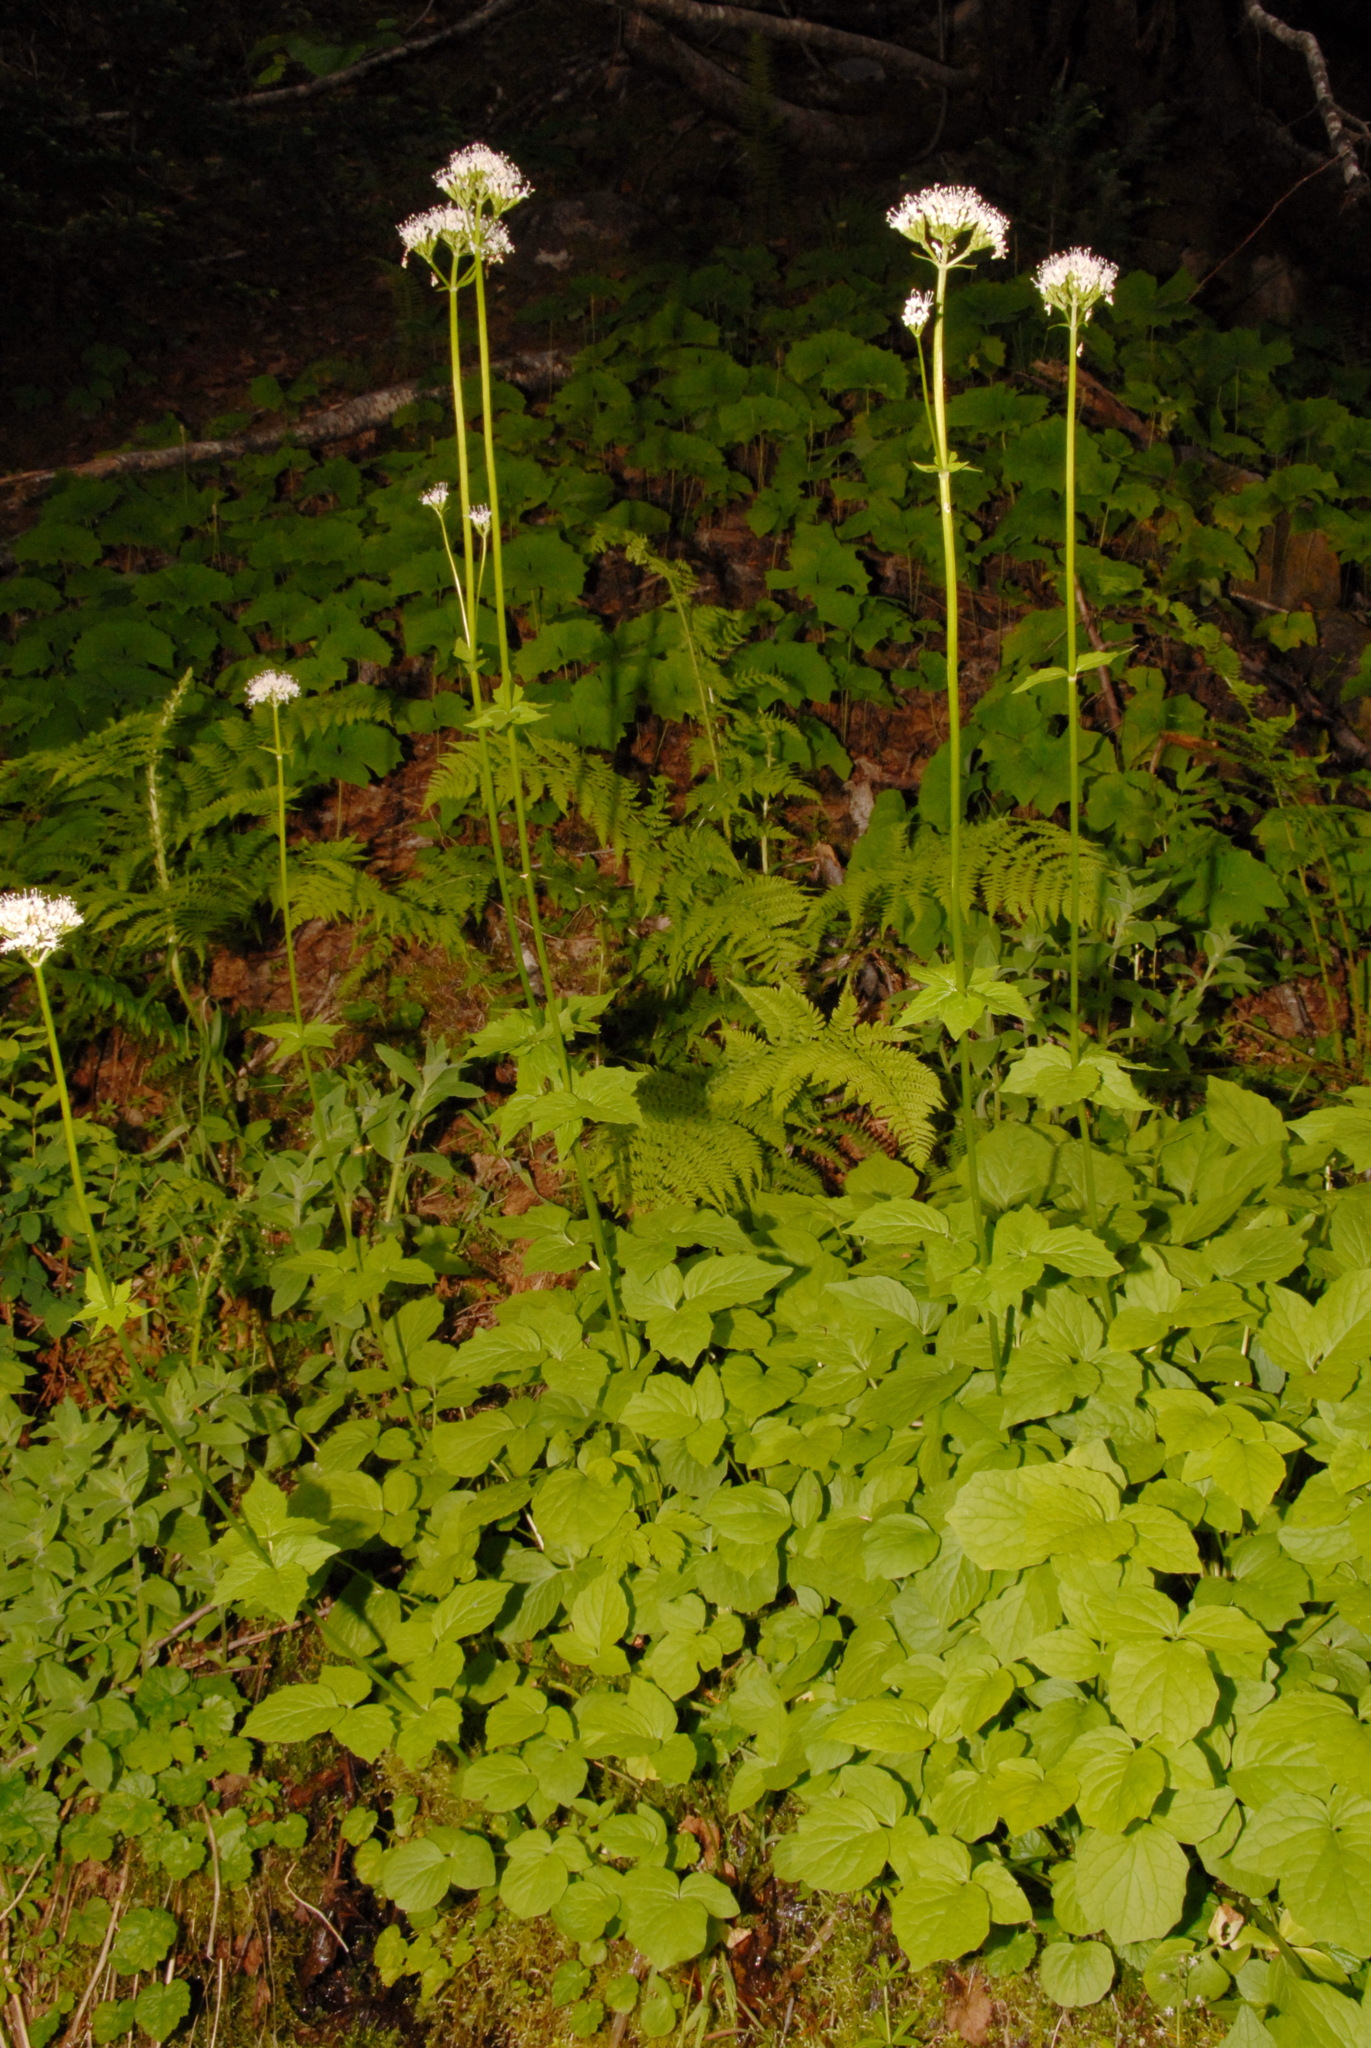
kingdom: Plantae
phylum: Tracheophyta
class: Magnoliopsida
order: Dipsacales
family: Caprifoliaceae
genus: Valeriana
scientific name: Valeriana sitchensis
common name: Pacific valerian
